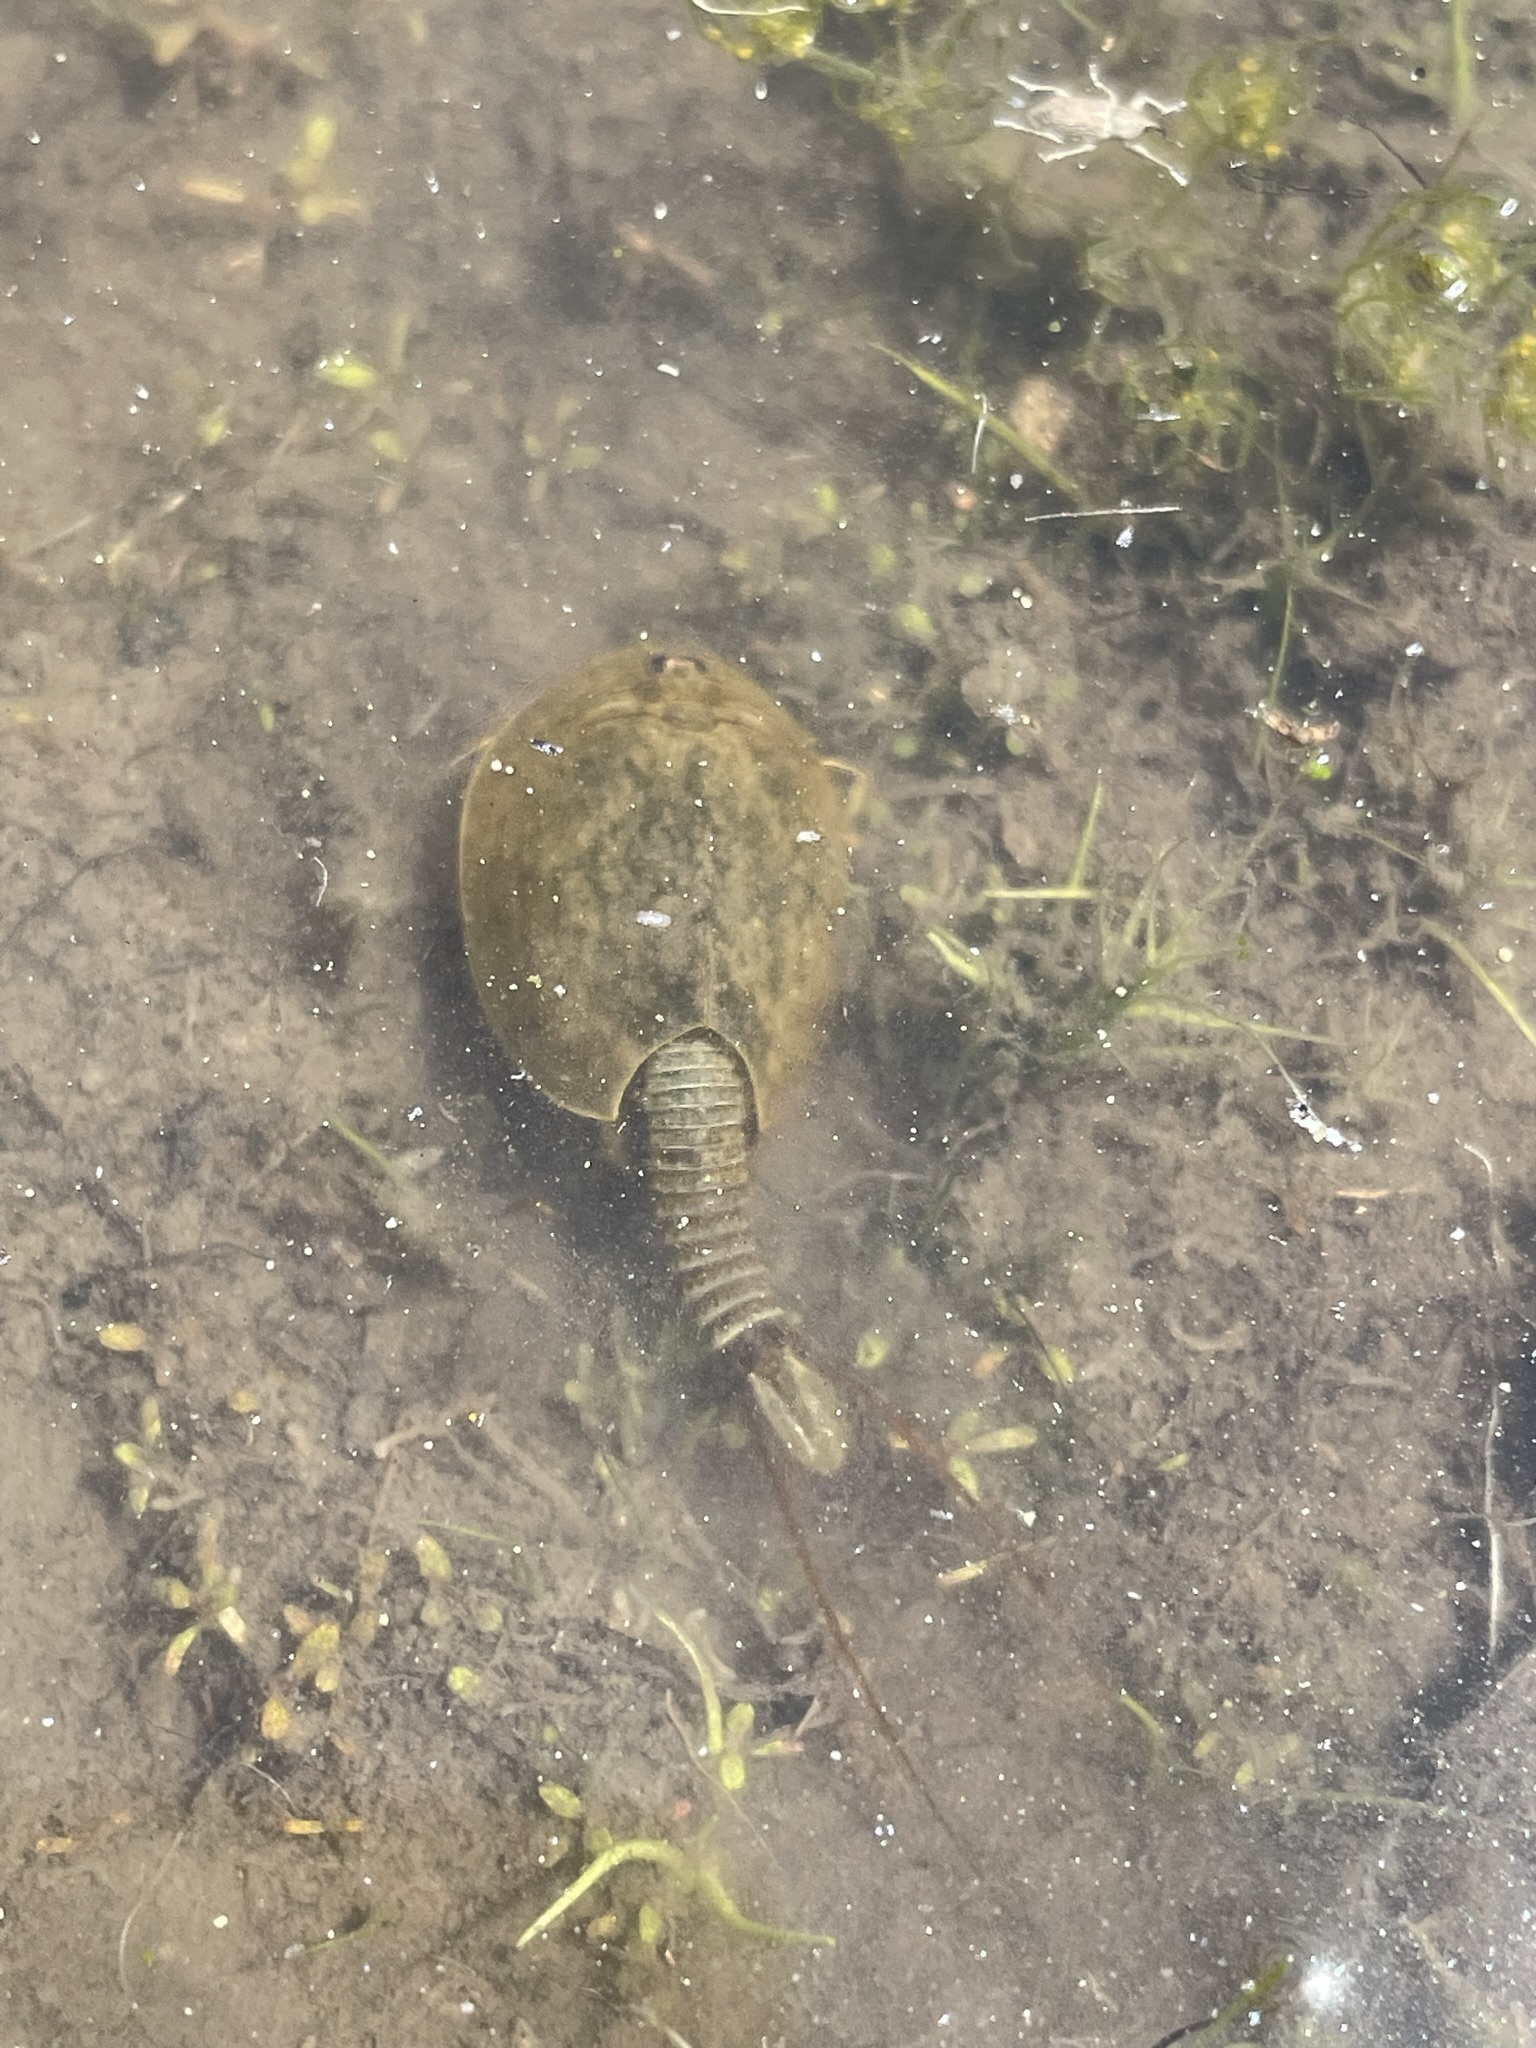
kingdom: Animalia
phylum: Arthropoda
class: Branchiopoda
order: Notostraca
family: Triopsidae
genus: Lepidurus
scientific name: Lepidurus cryptus
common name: Cryptic tadpole shrimp
